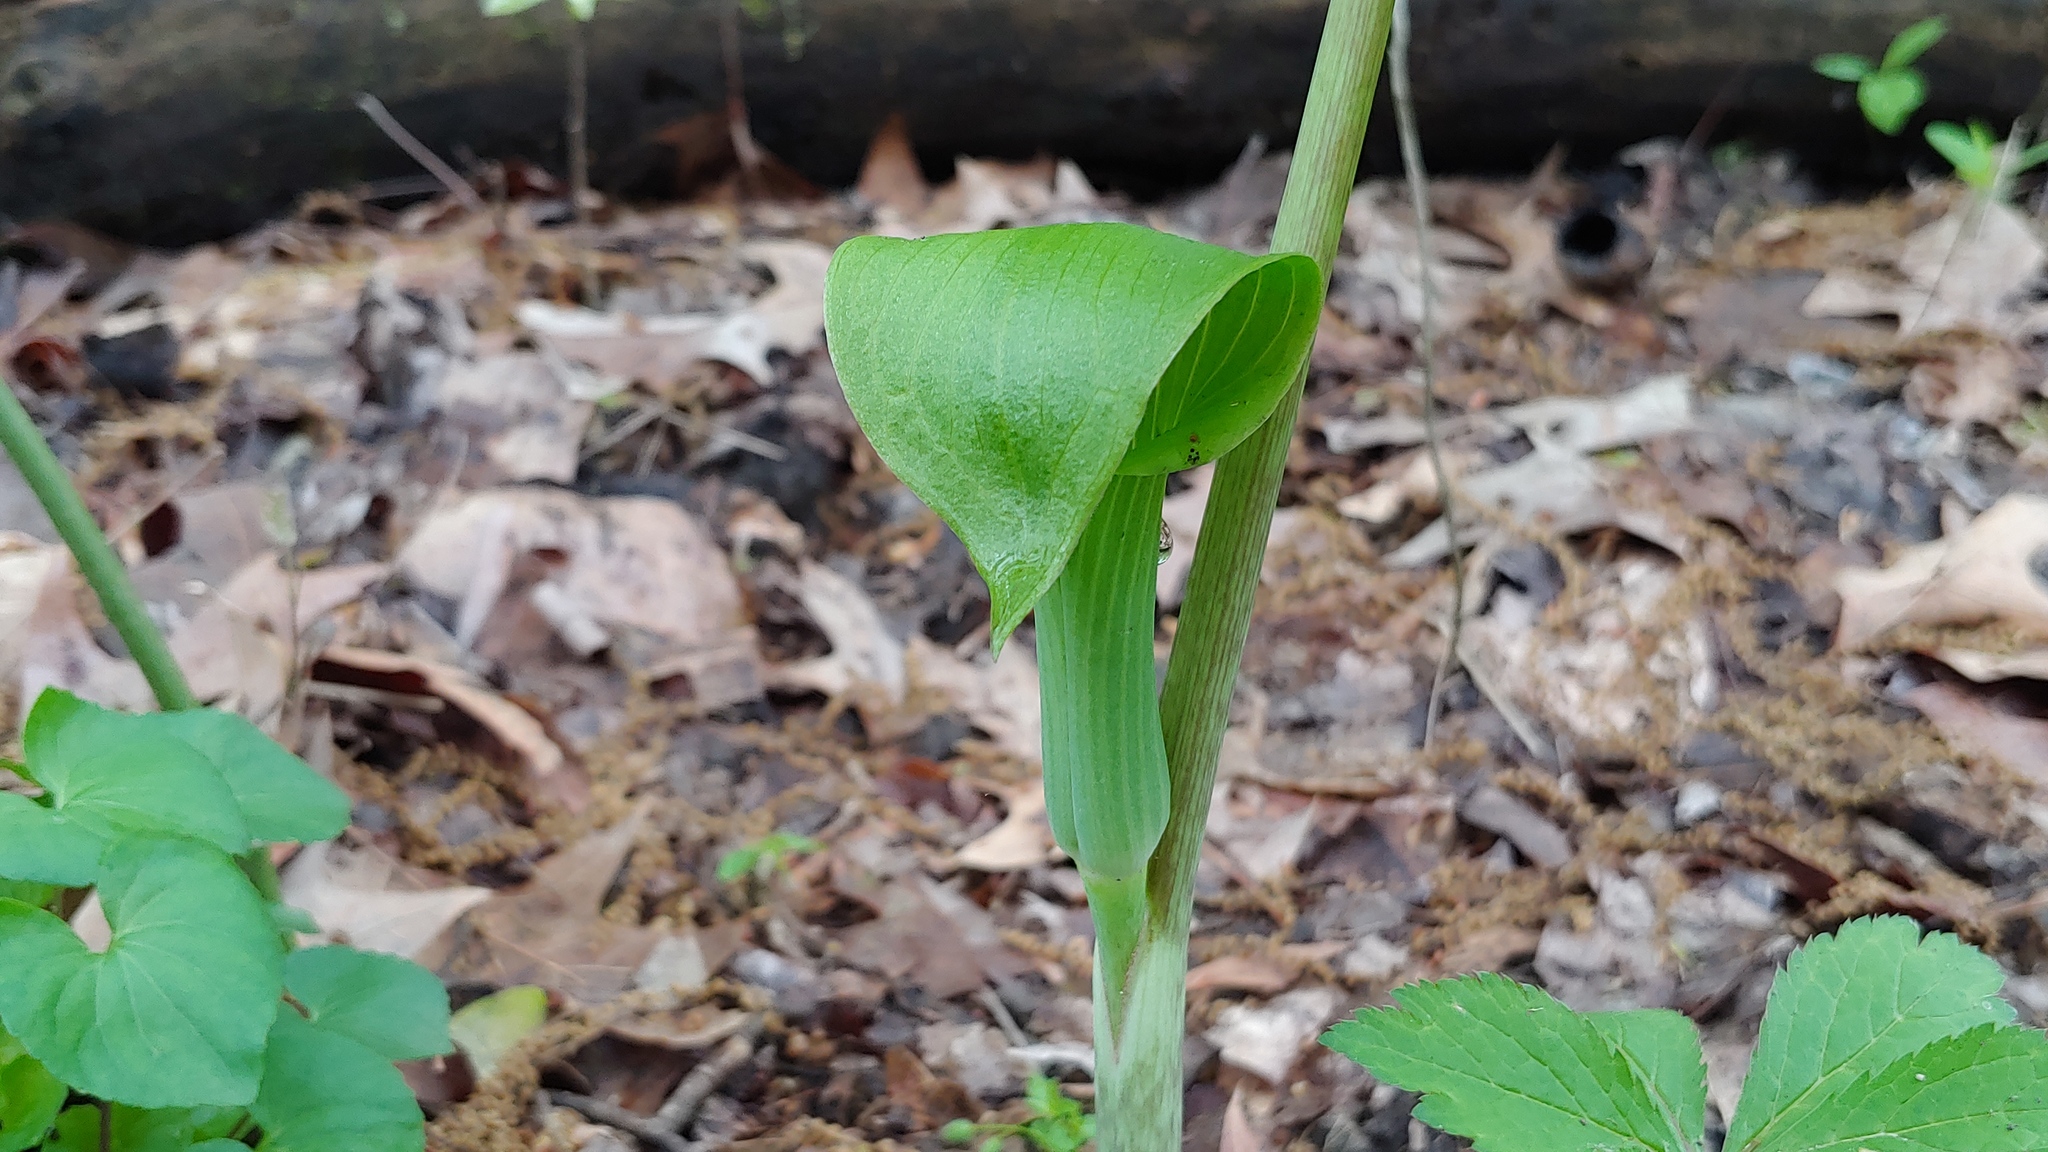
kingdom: Plantae
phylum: Tracheophyta
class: Liliopsida
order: Alismatales
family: Araceae
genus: Arisaema
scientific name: Arisaema triphyllum
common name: Jack-in-the-pulpit
